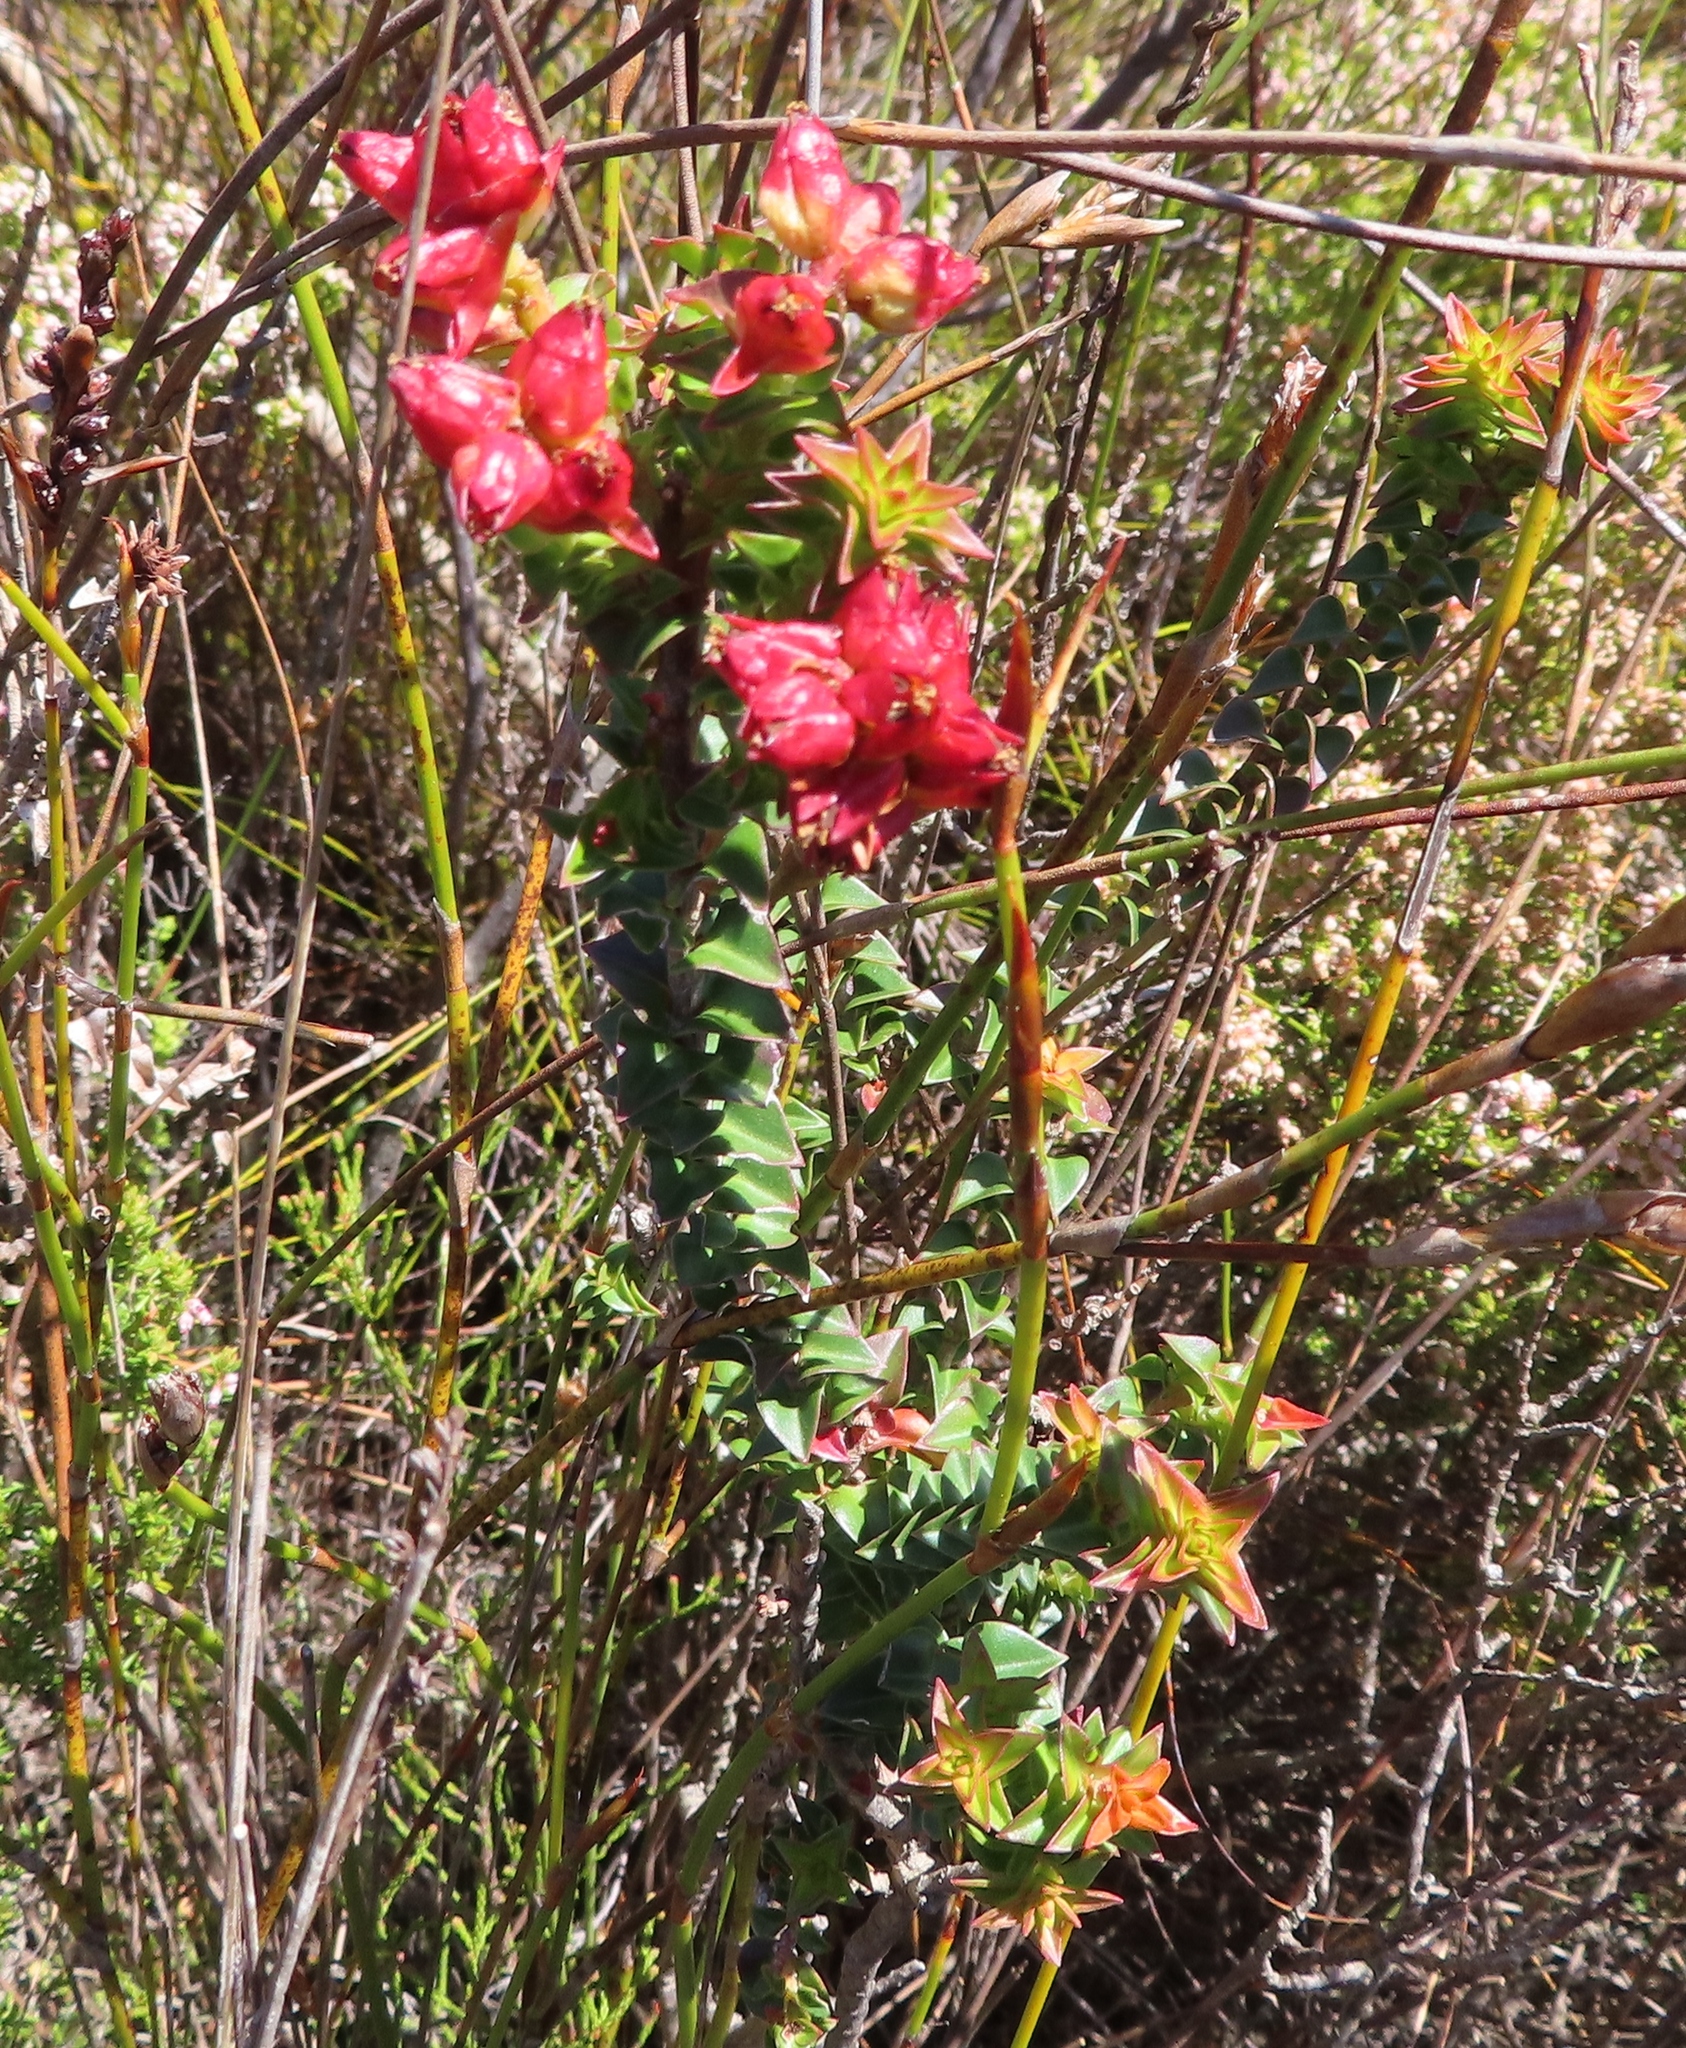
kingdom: Plantae
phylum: Tracheophyta
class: Magnoliopsida
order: Myrtales
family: Penaeaceae
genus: Penaea
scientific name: Penaea mucronata
